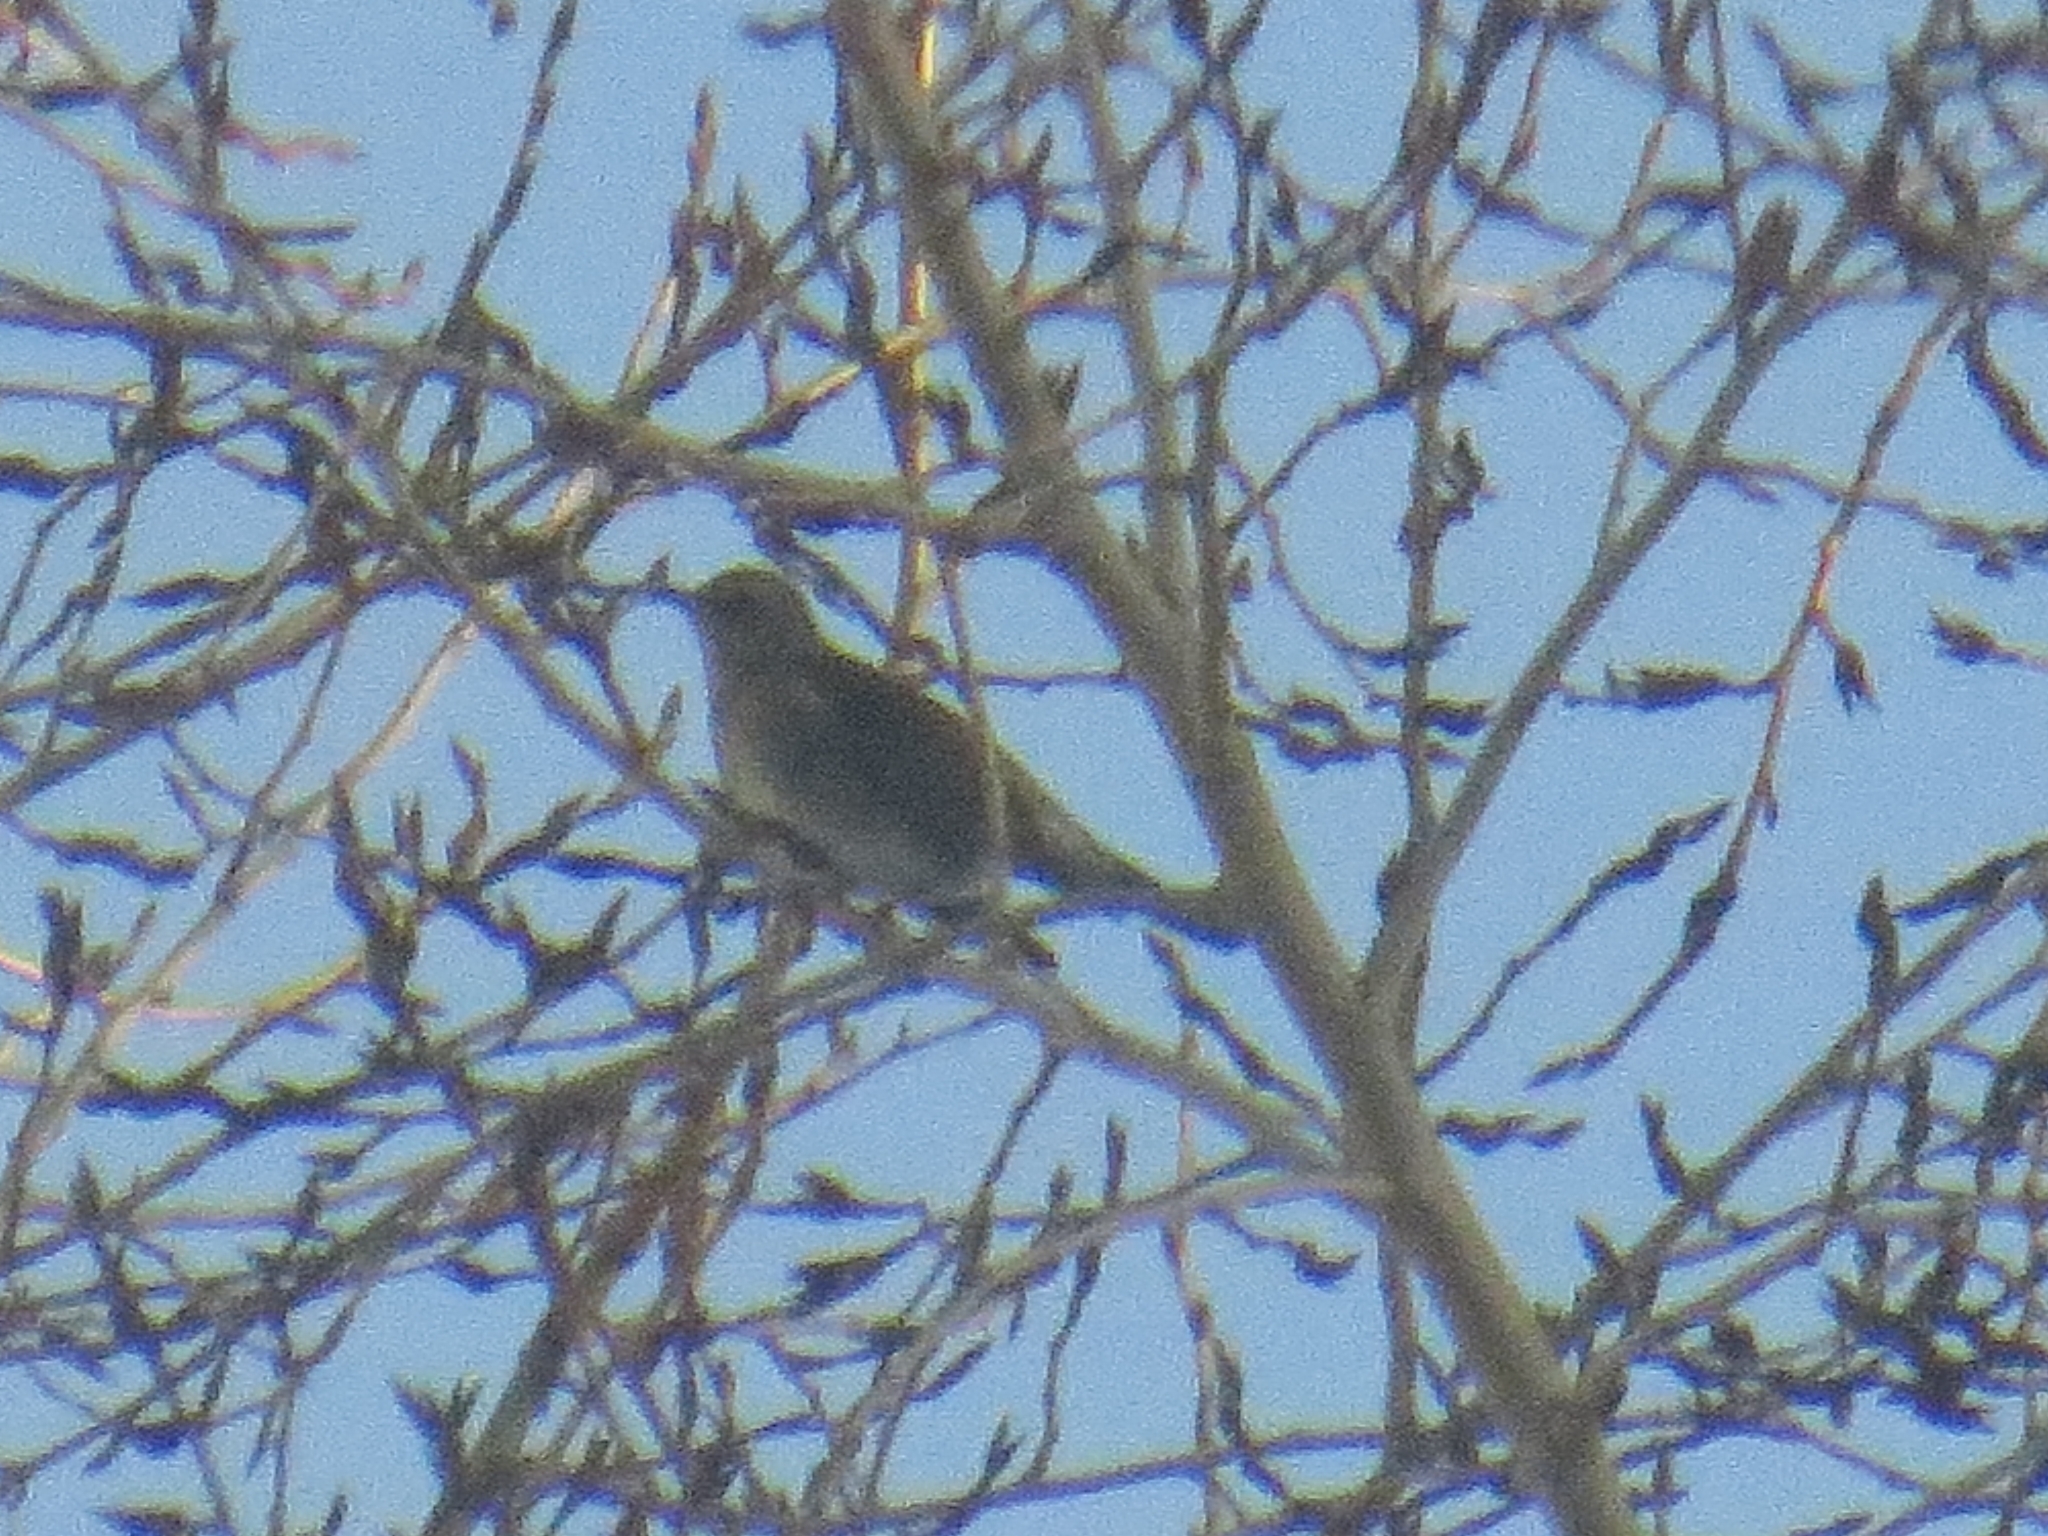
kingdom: Animalia
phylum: Chordata
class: Aves
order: Passeriformes
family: Turdidae
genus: Turdus
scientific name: Turdus pilaris
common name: Fieldfare
